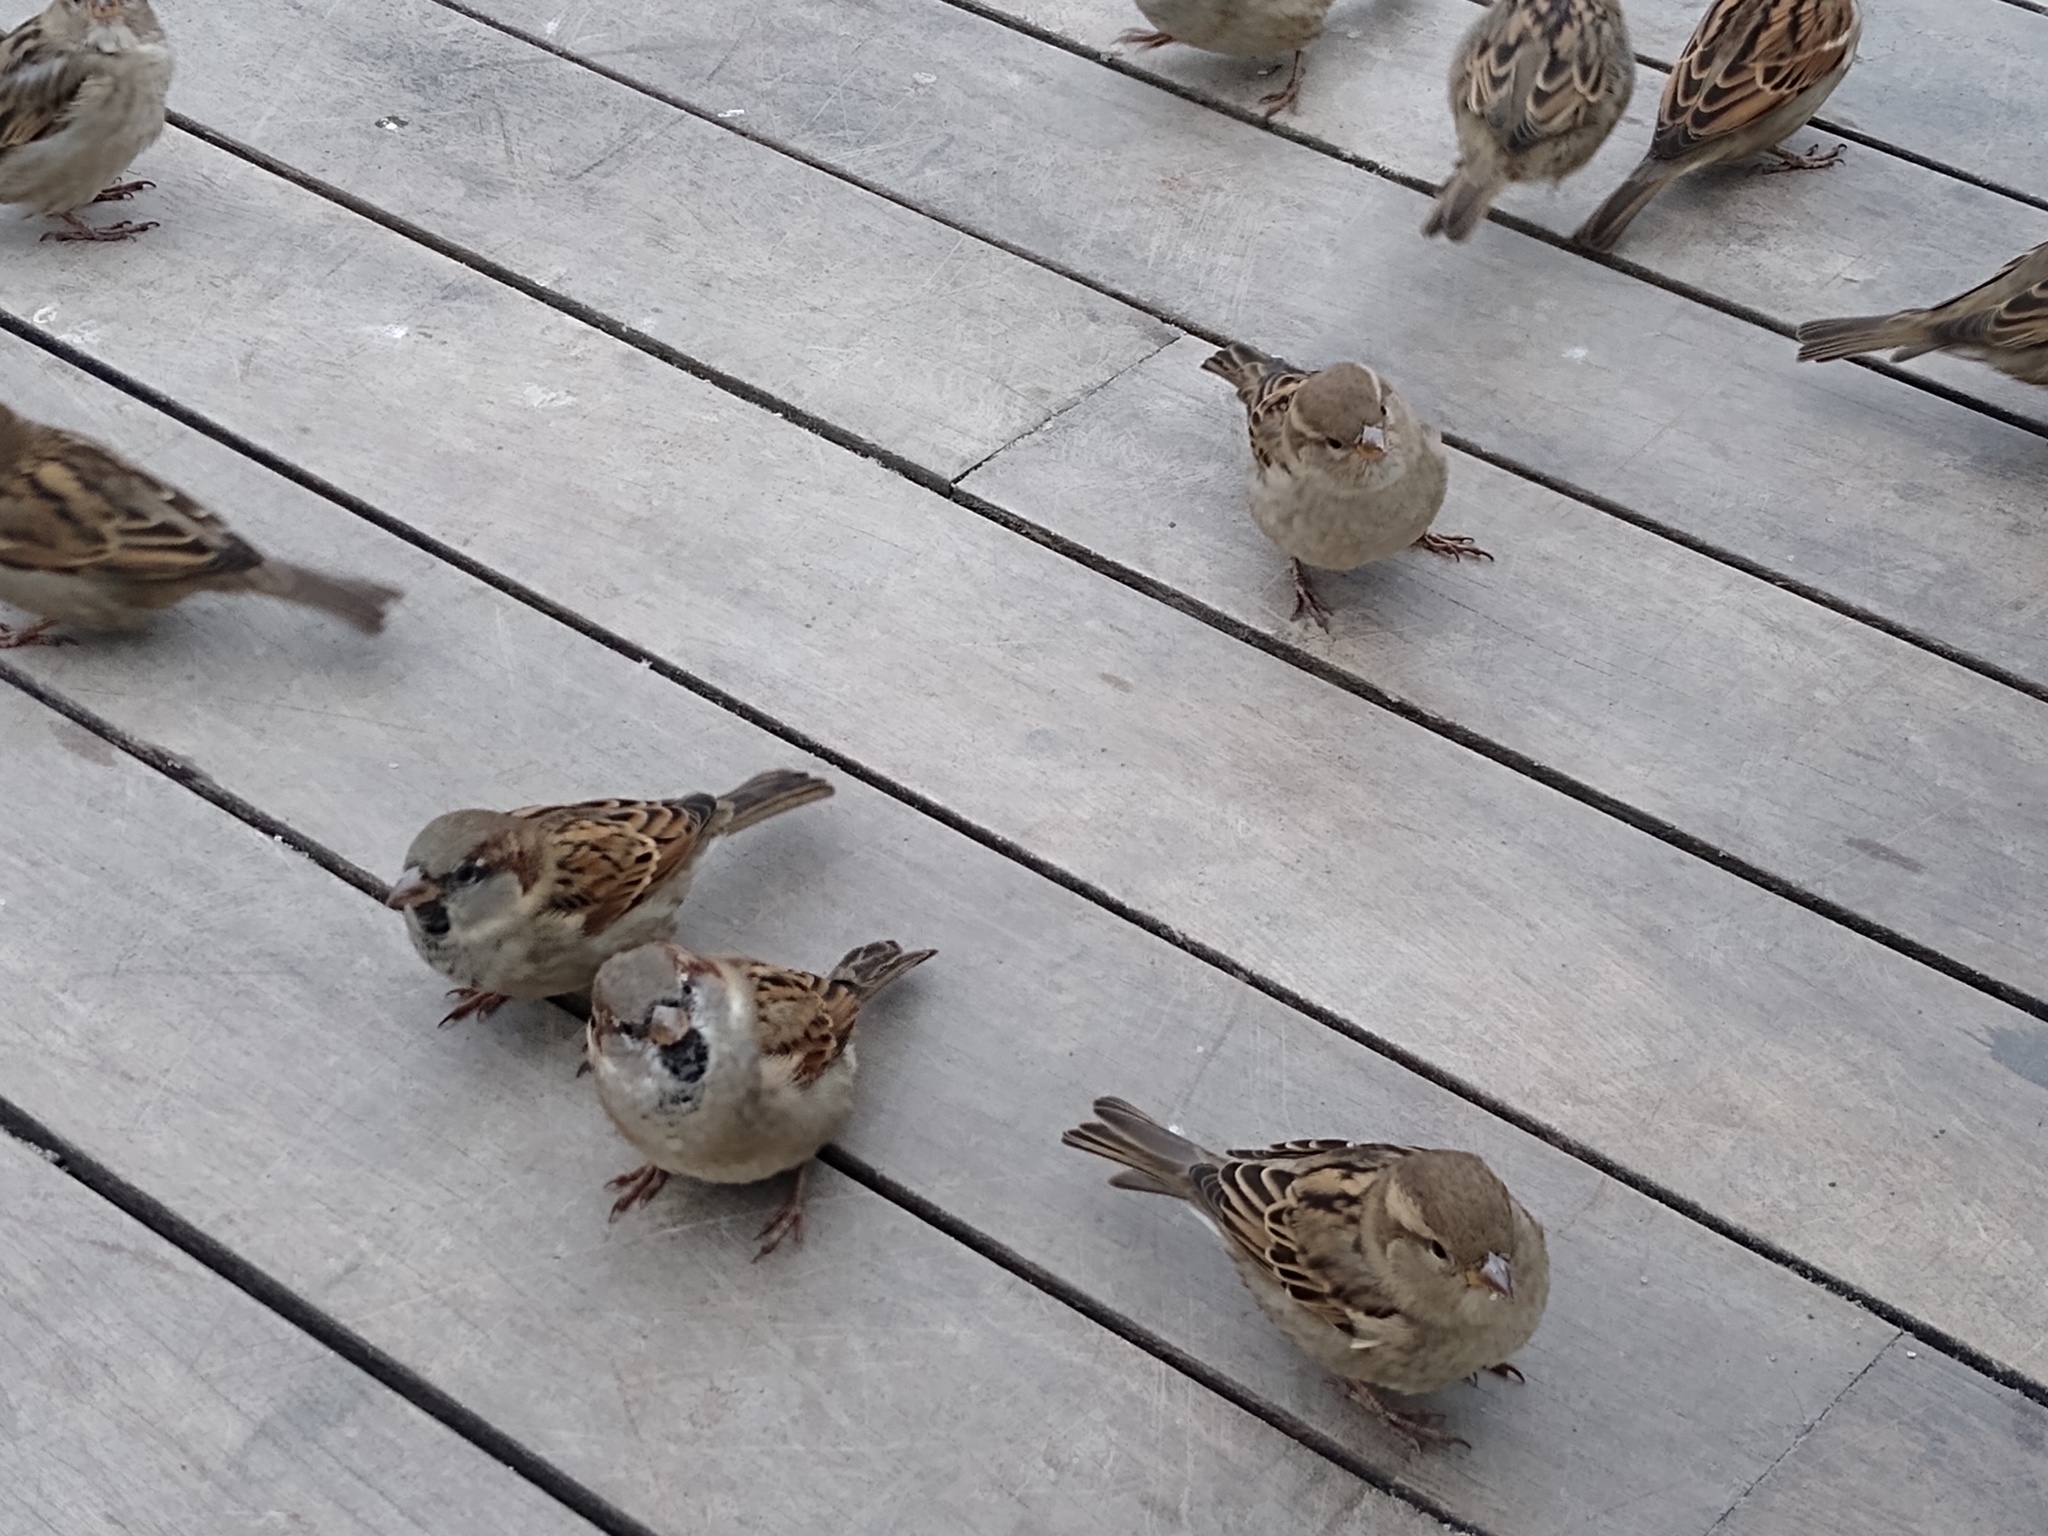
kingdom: Animalia
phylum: Chordata
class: Aves
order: Passeriformes
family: Passeridae
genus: Passer
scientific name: Passer domesticus
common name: House sparrow
